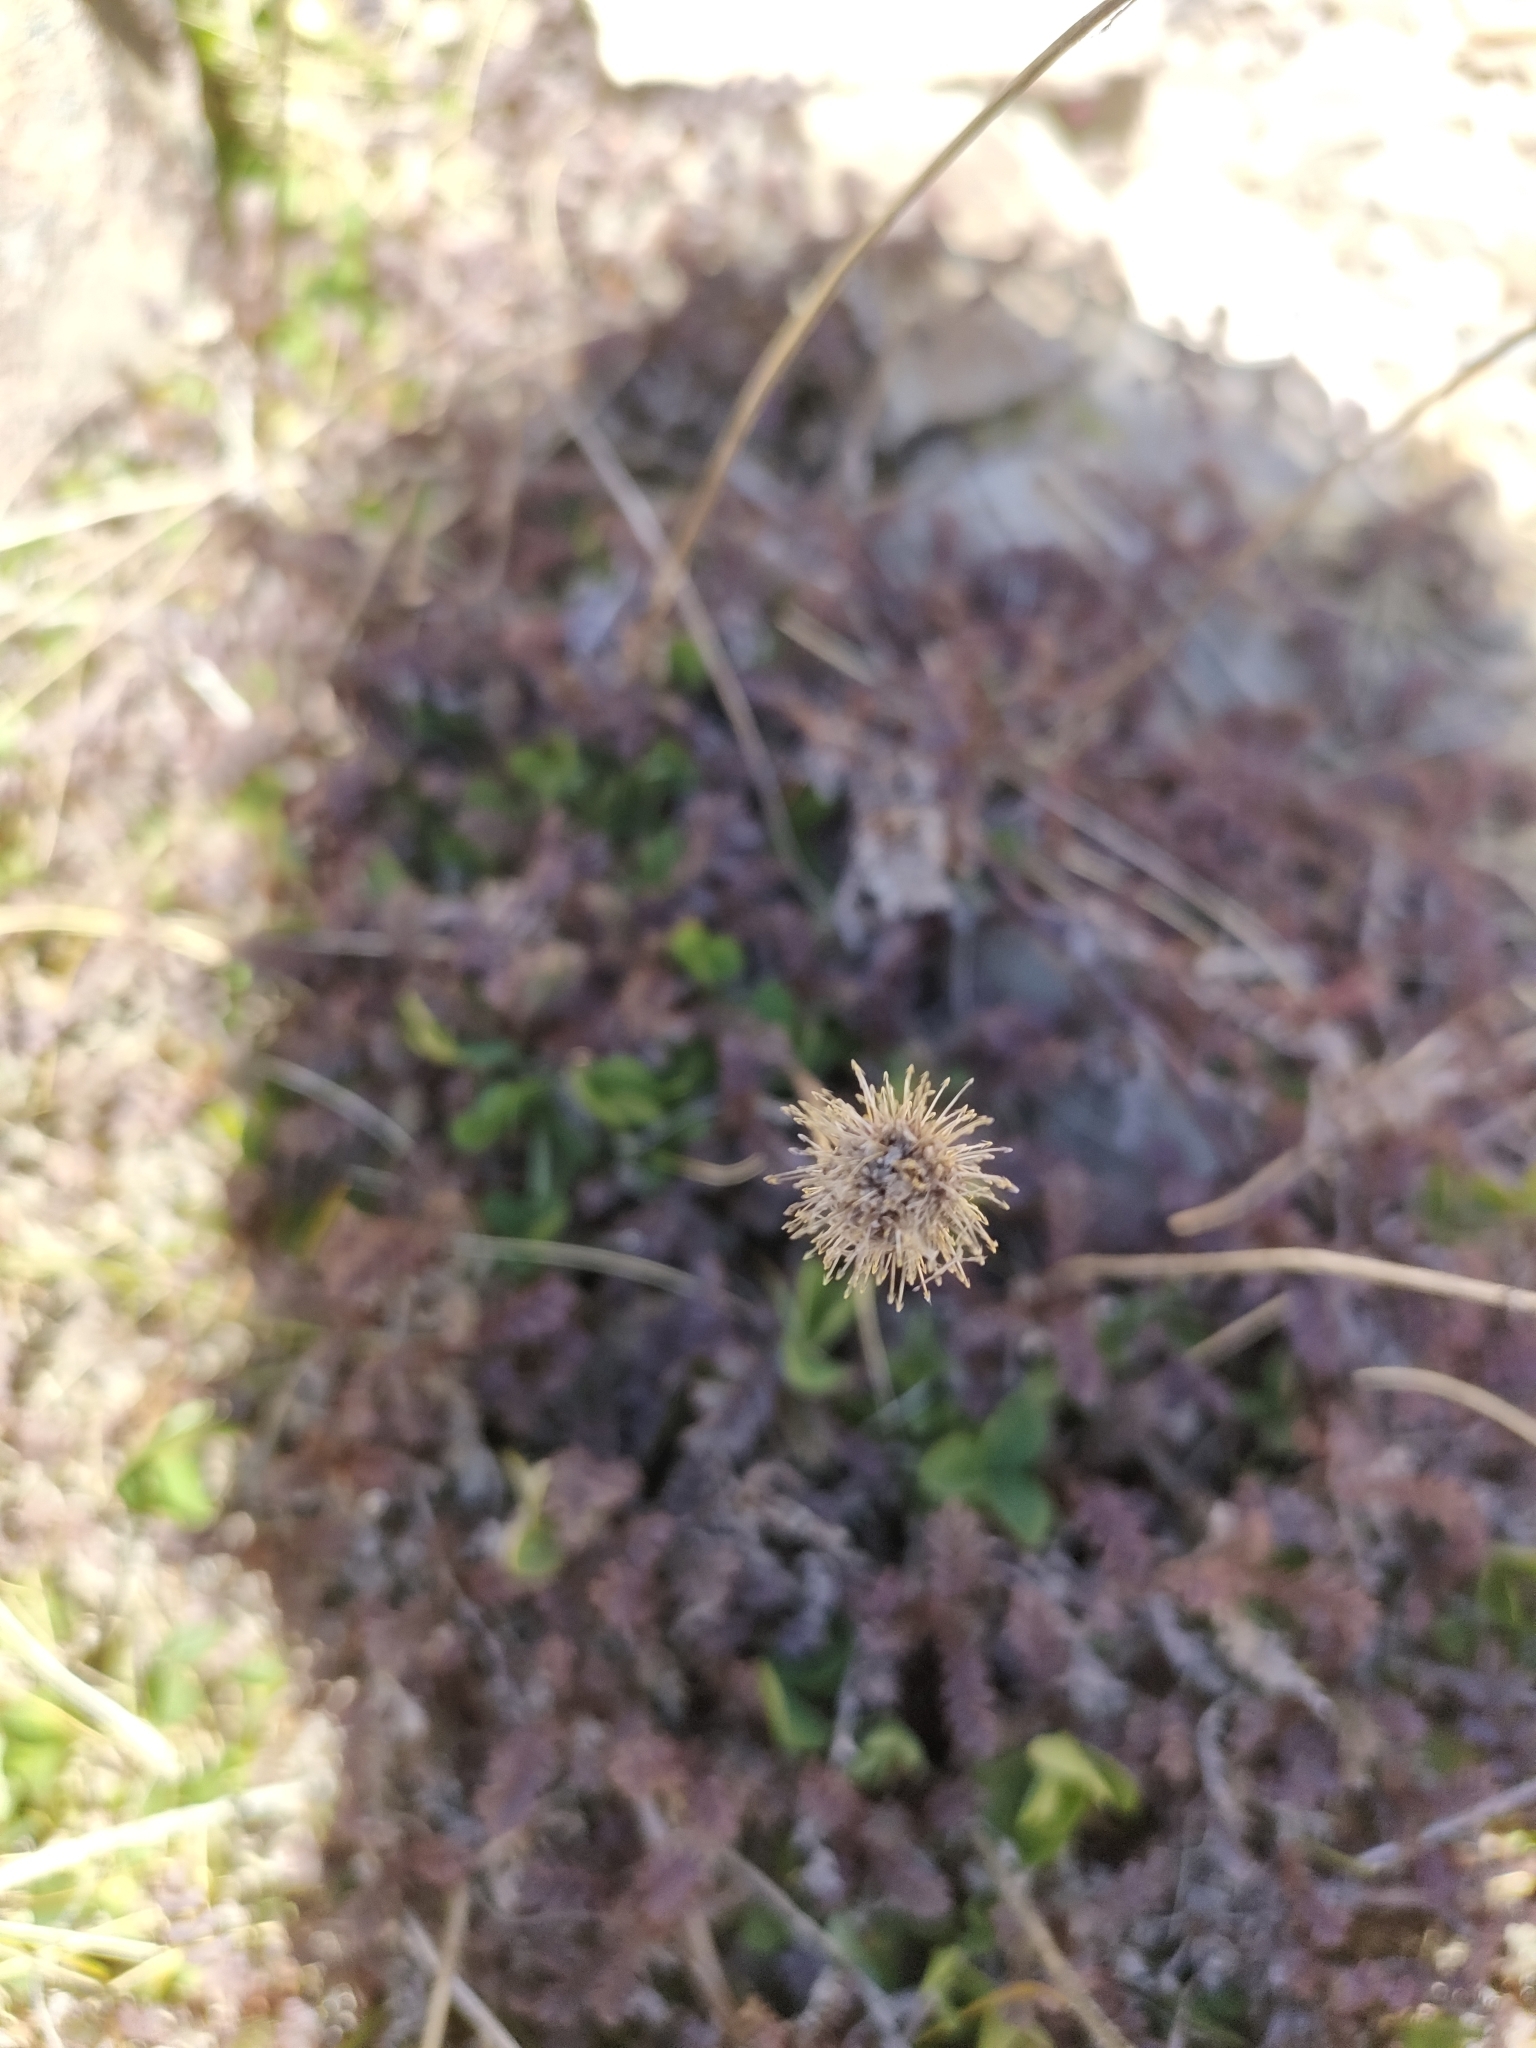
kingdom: Plantae
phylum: Tracheophyta
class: Magnoliopsida
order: Rosales
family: Rosaceae
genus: Acaena
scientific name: Acaena saccaticupula
